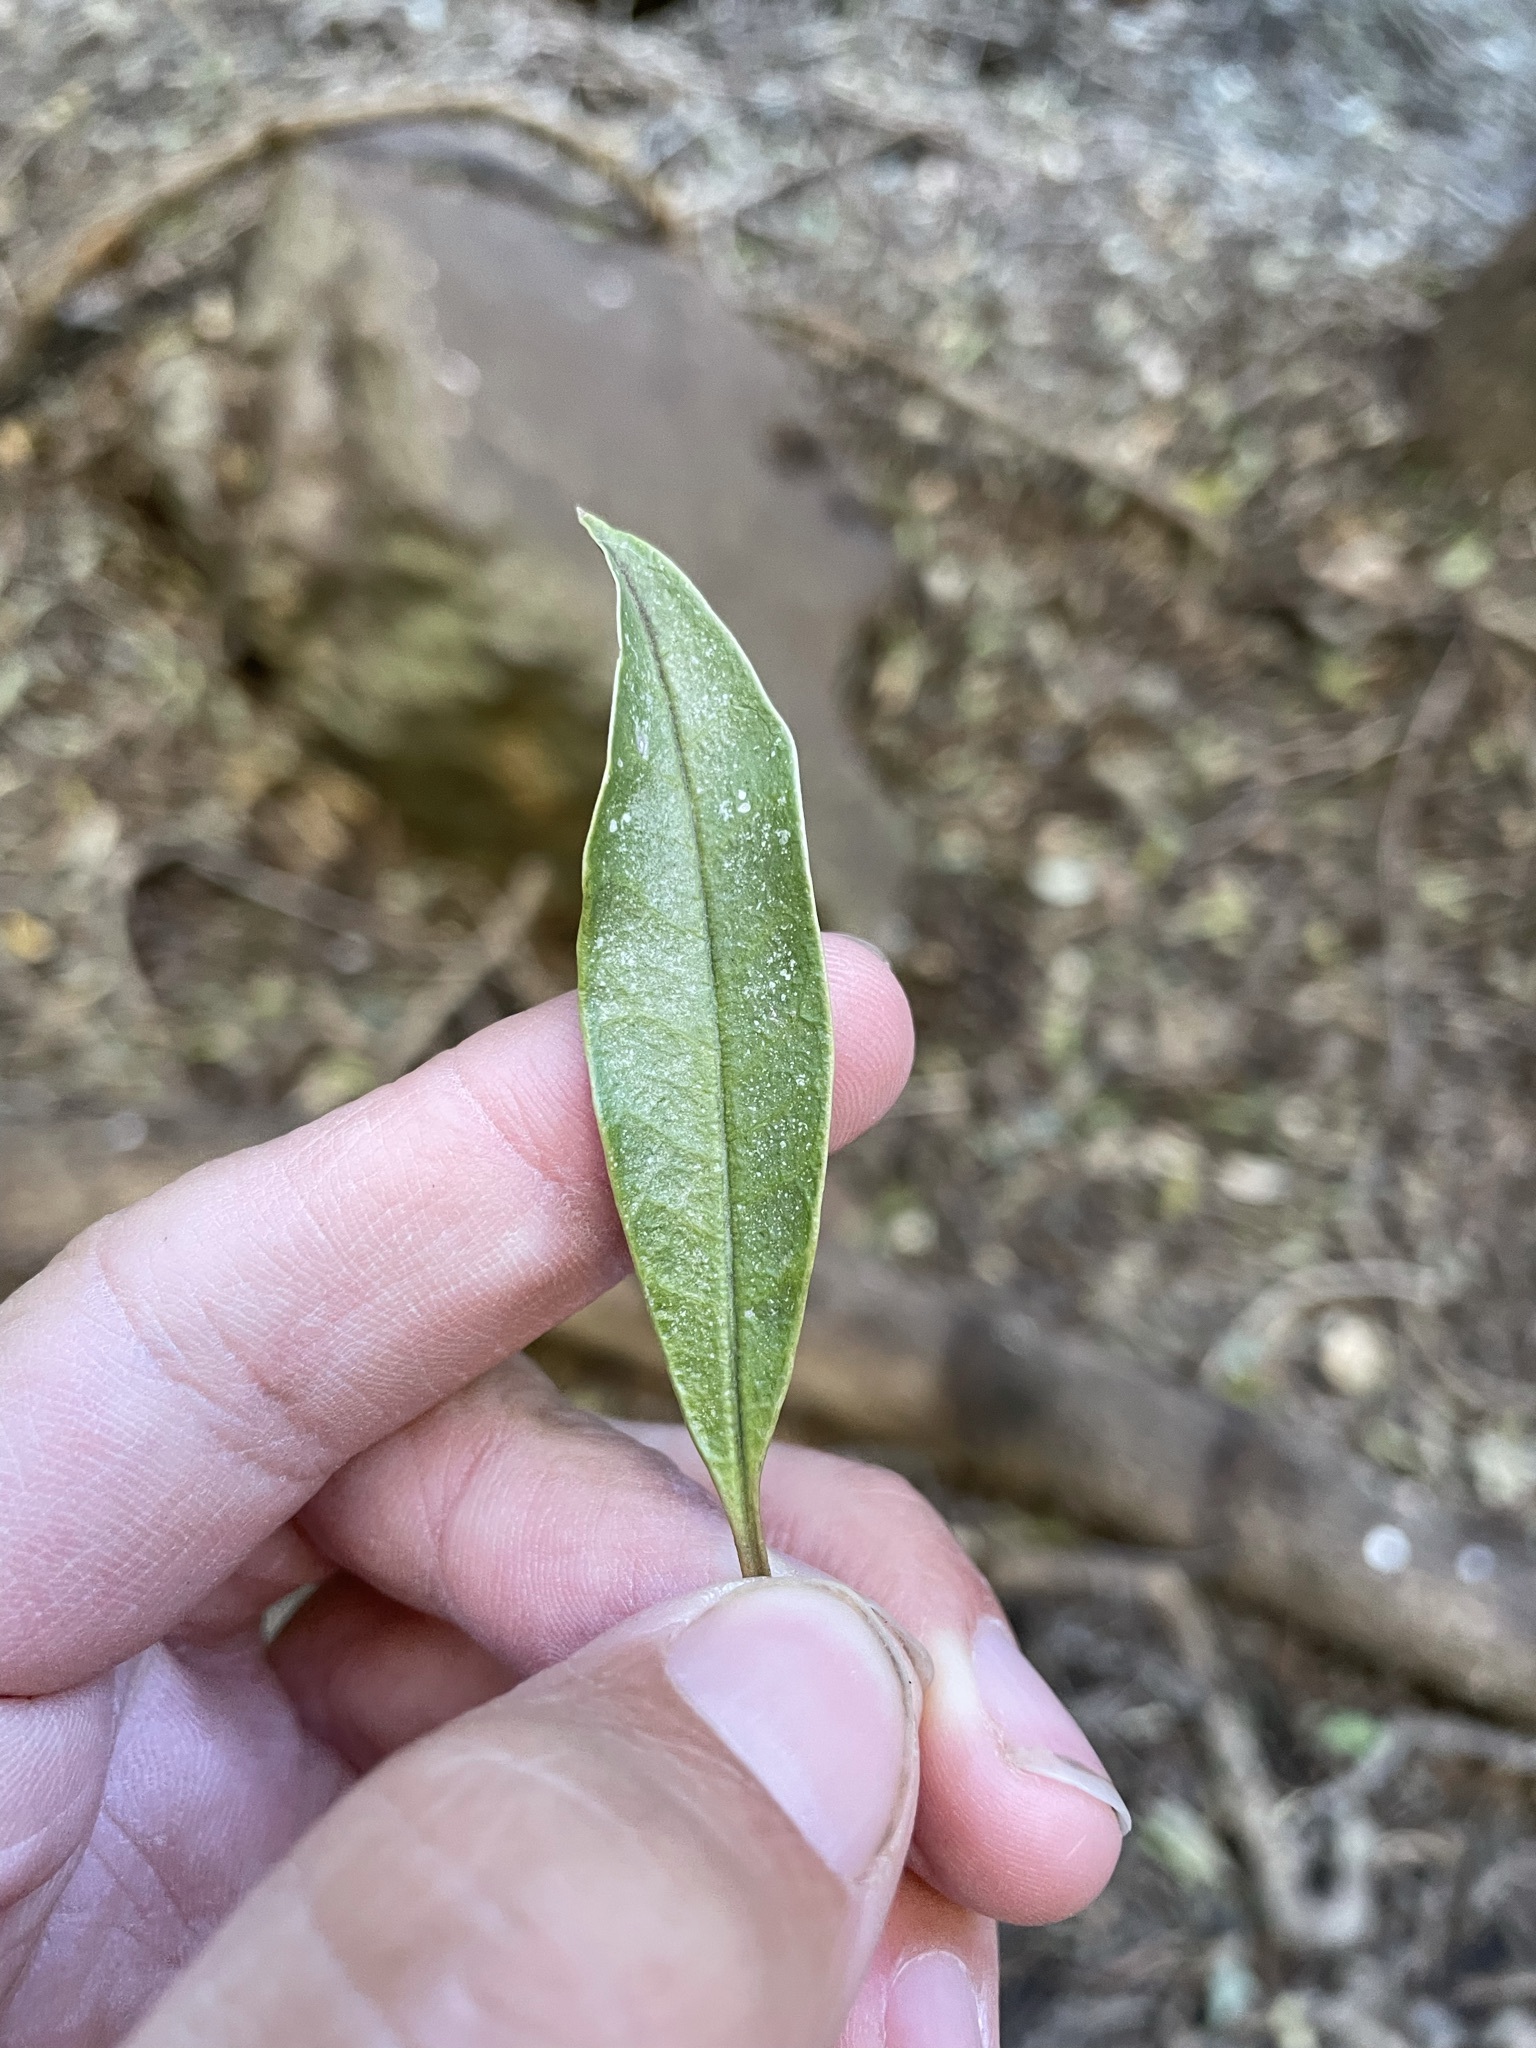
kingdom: Plantae
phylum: Tracheophyta
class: Magnoliopsida
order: Lamiales
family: Scrophulariaceae
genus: Myoporum
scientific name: Myoporum montanum
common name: Waterbush
